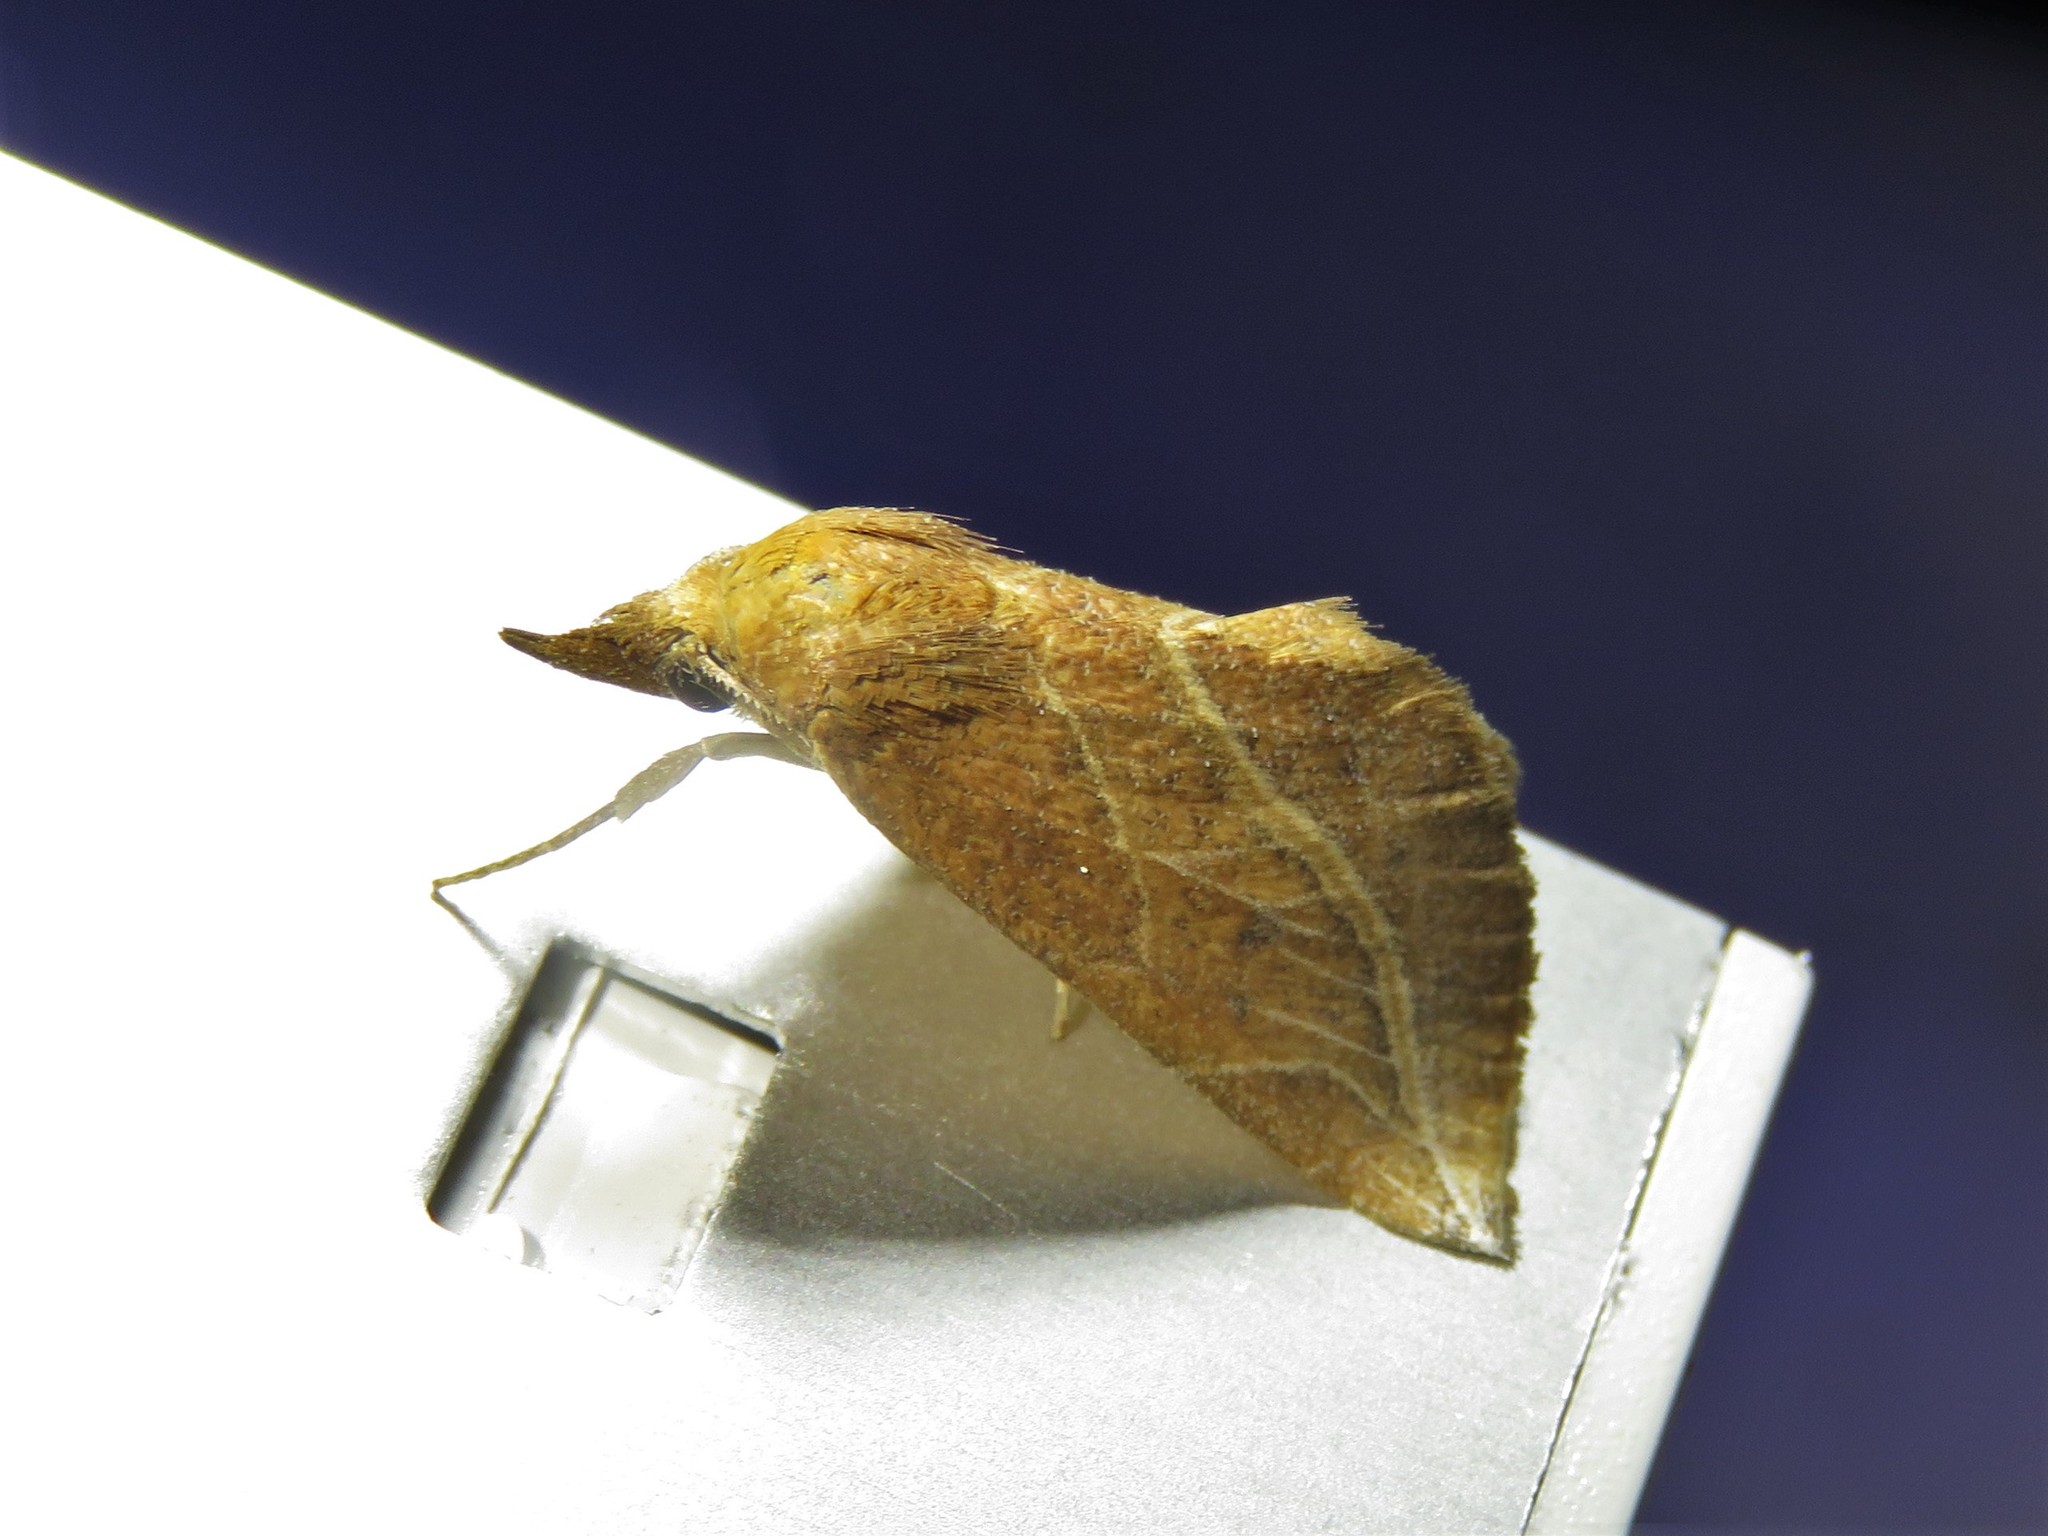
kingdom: Animalia
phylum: Arthropoda
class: Insecta
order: Lepidoptera
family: Erebidae
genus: Phyprosopus
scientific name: Phyprosopus callitrichoides
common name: Curved-lined owlet
